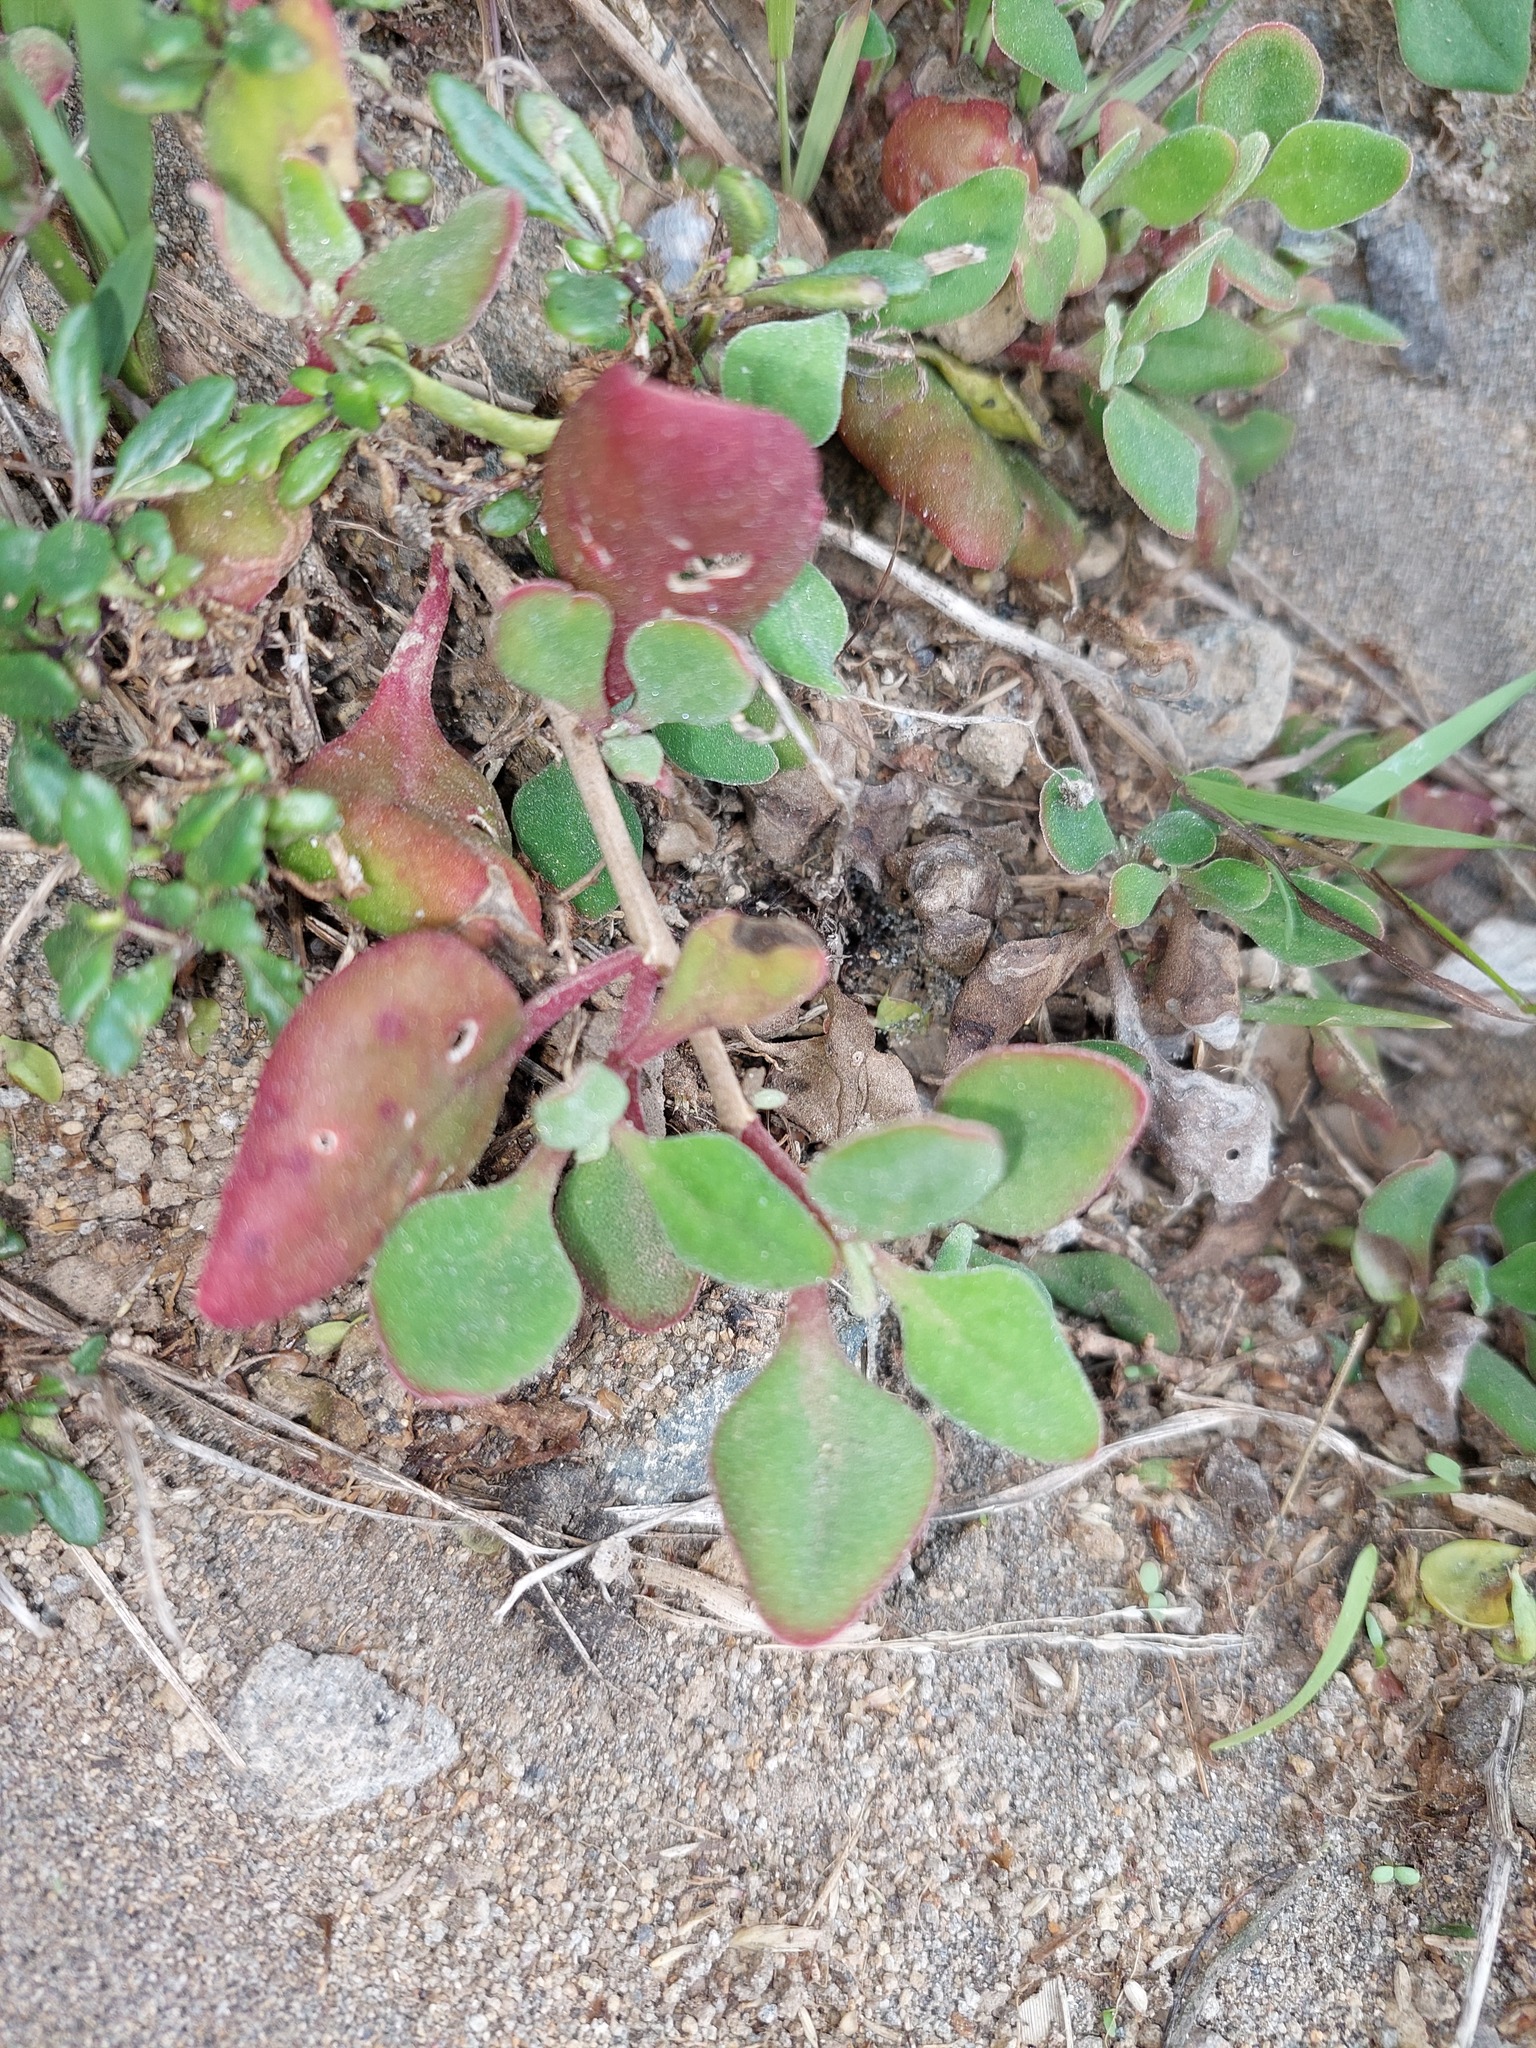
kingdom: Plantae
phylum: Tracheophyta
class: Magnoliopsida
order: Caryophyllales
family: Aizoaceae
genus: Tetragonia
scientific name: Tetragonia implexicoma
